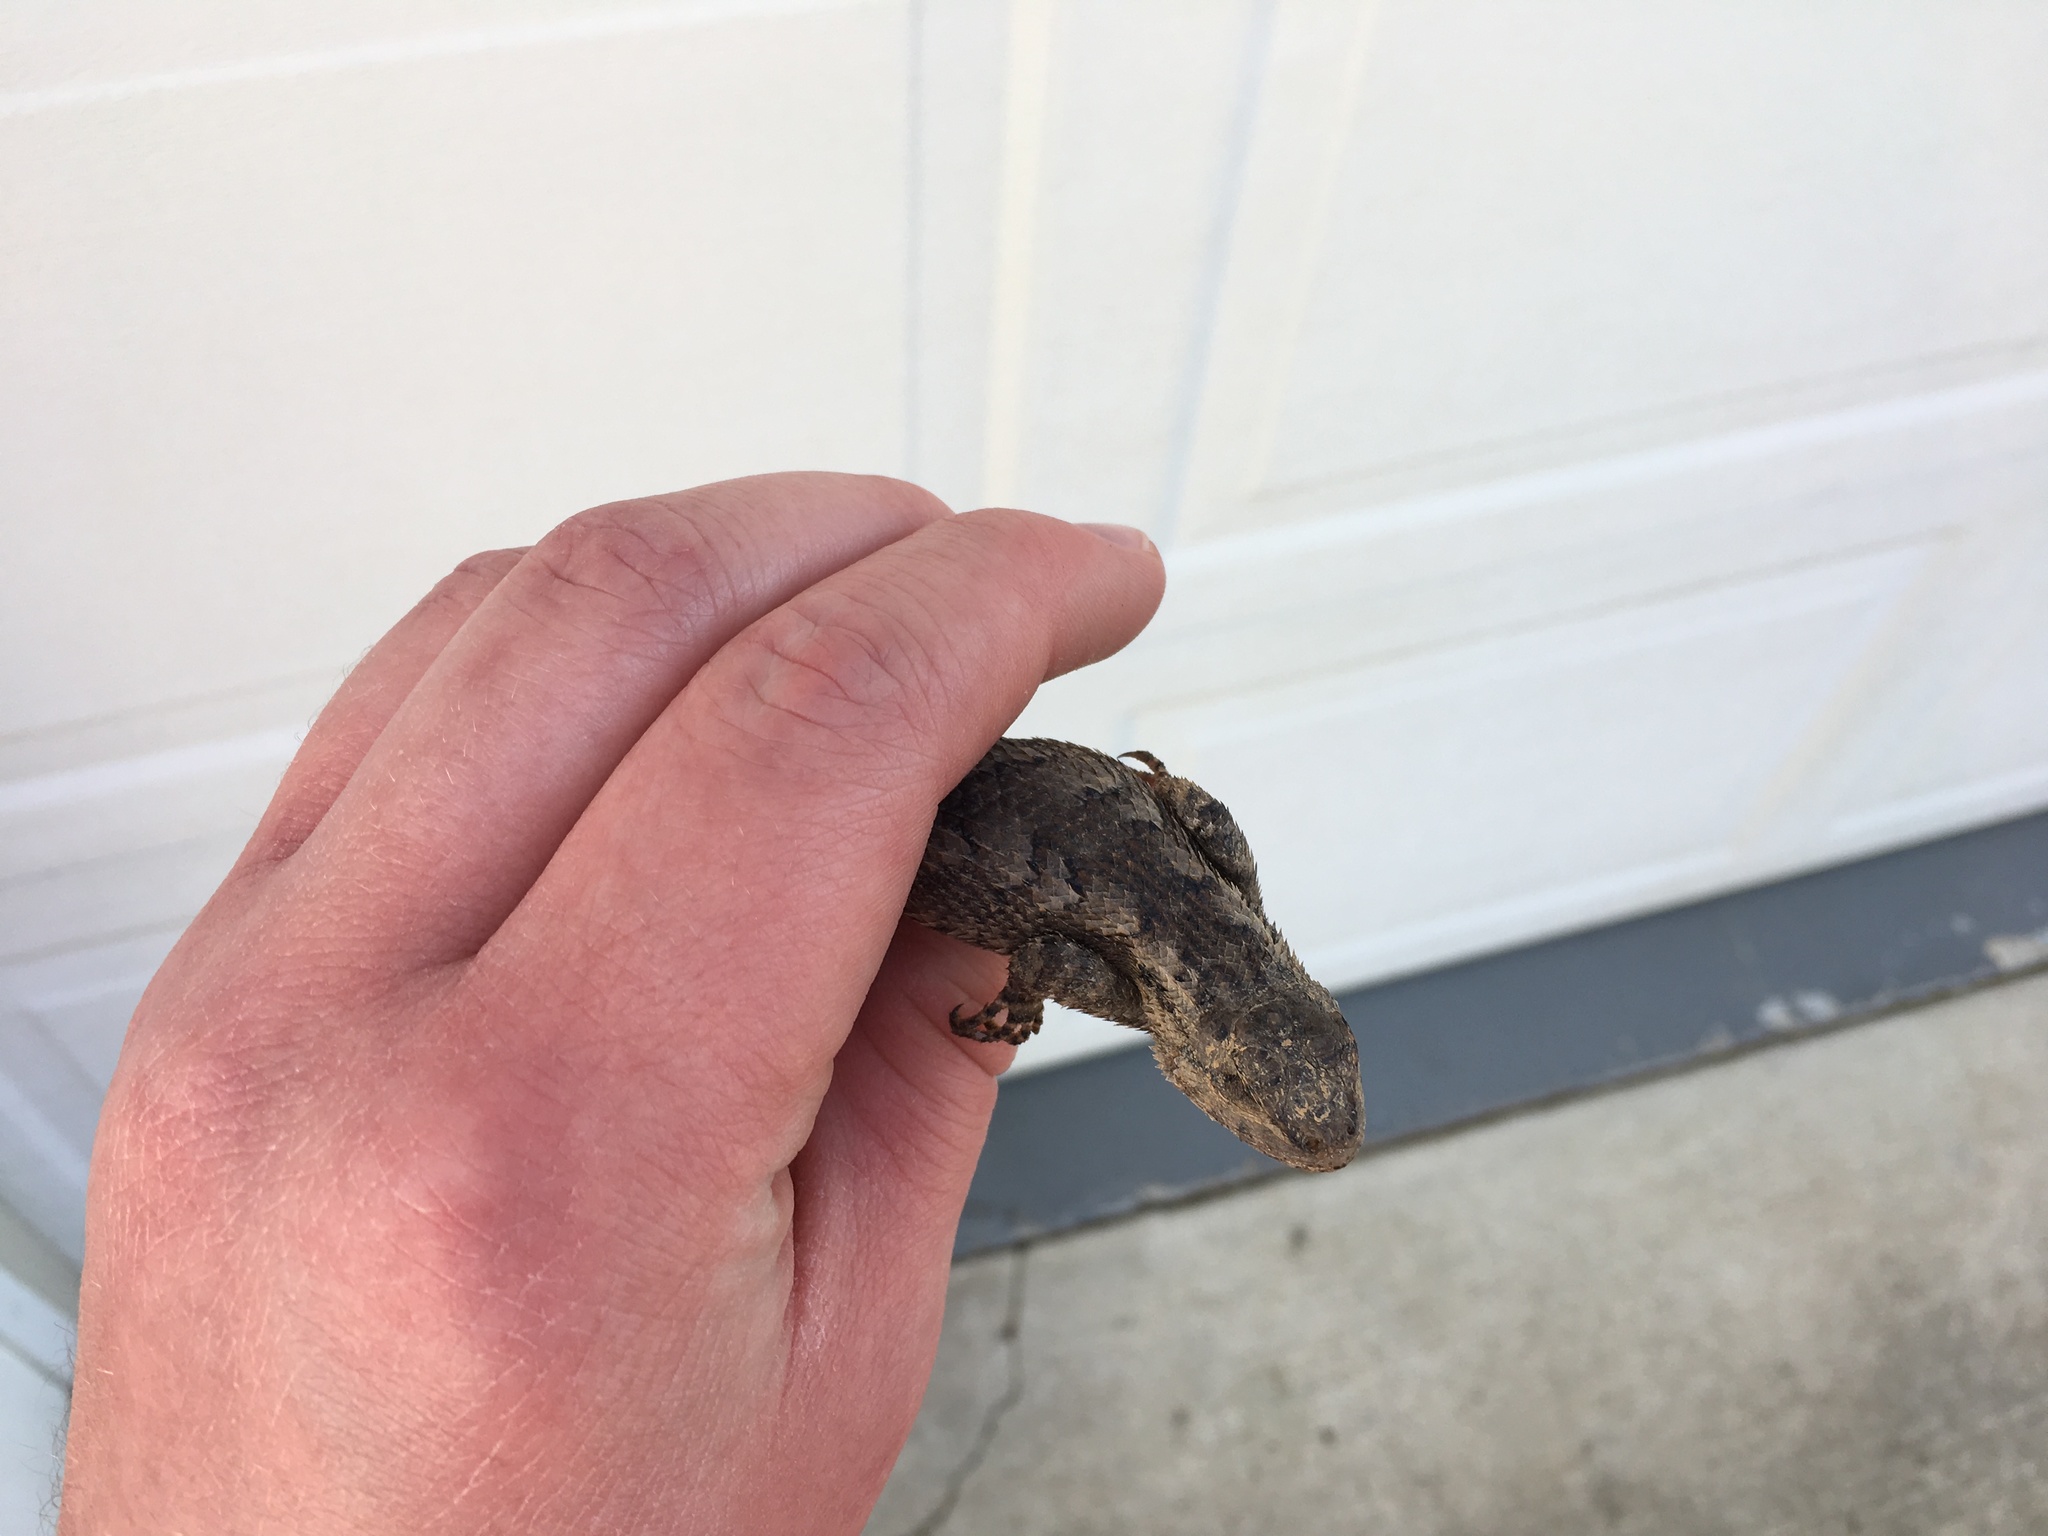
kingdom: Animalia
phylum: Chordata
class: Squamata
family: Phrynosomatidae
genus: Sceloporus
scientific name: Sceloporus undulatus
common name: Eastern fence lizard
